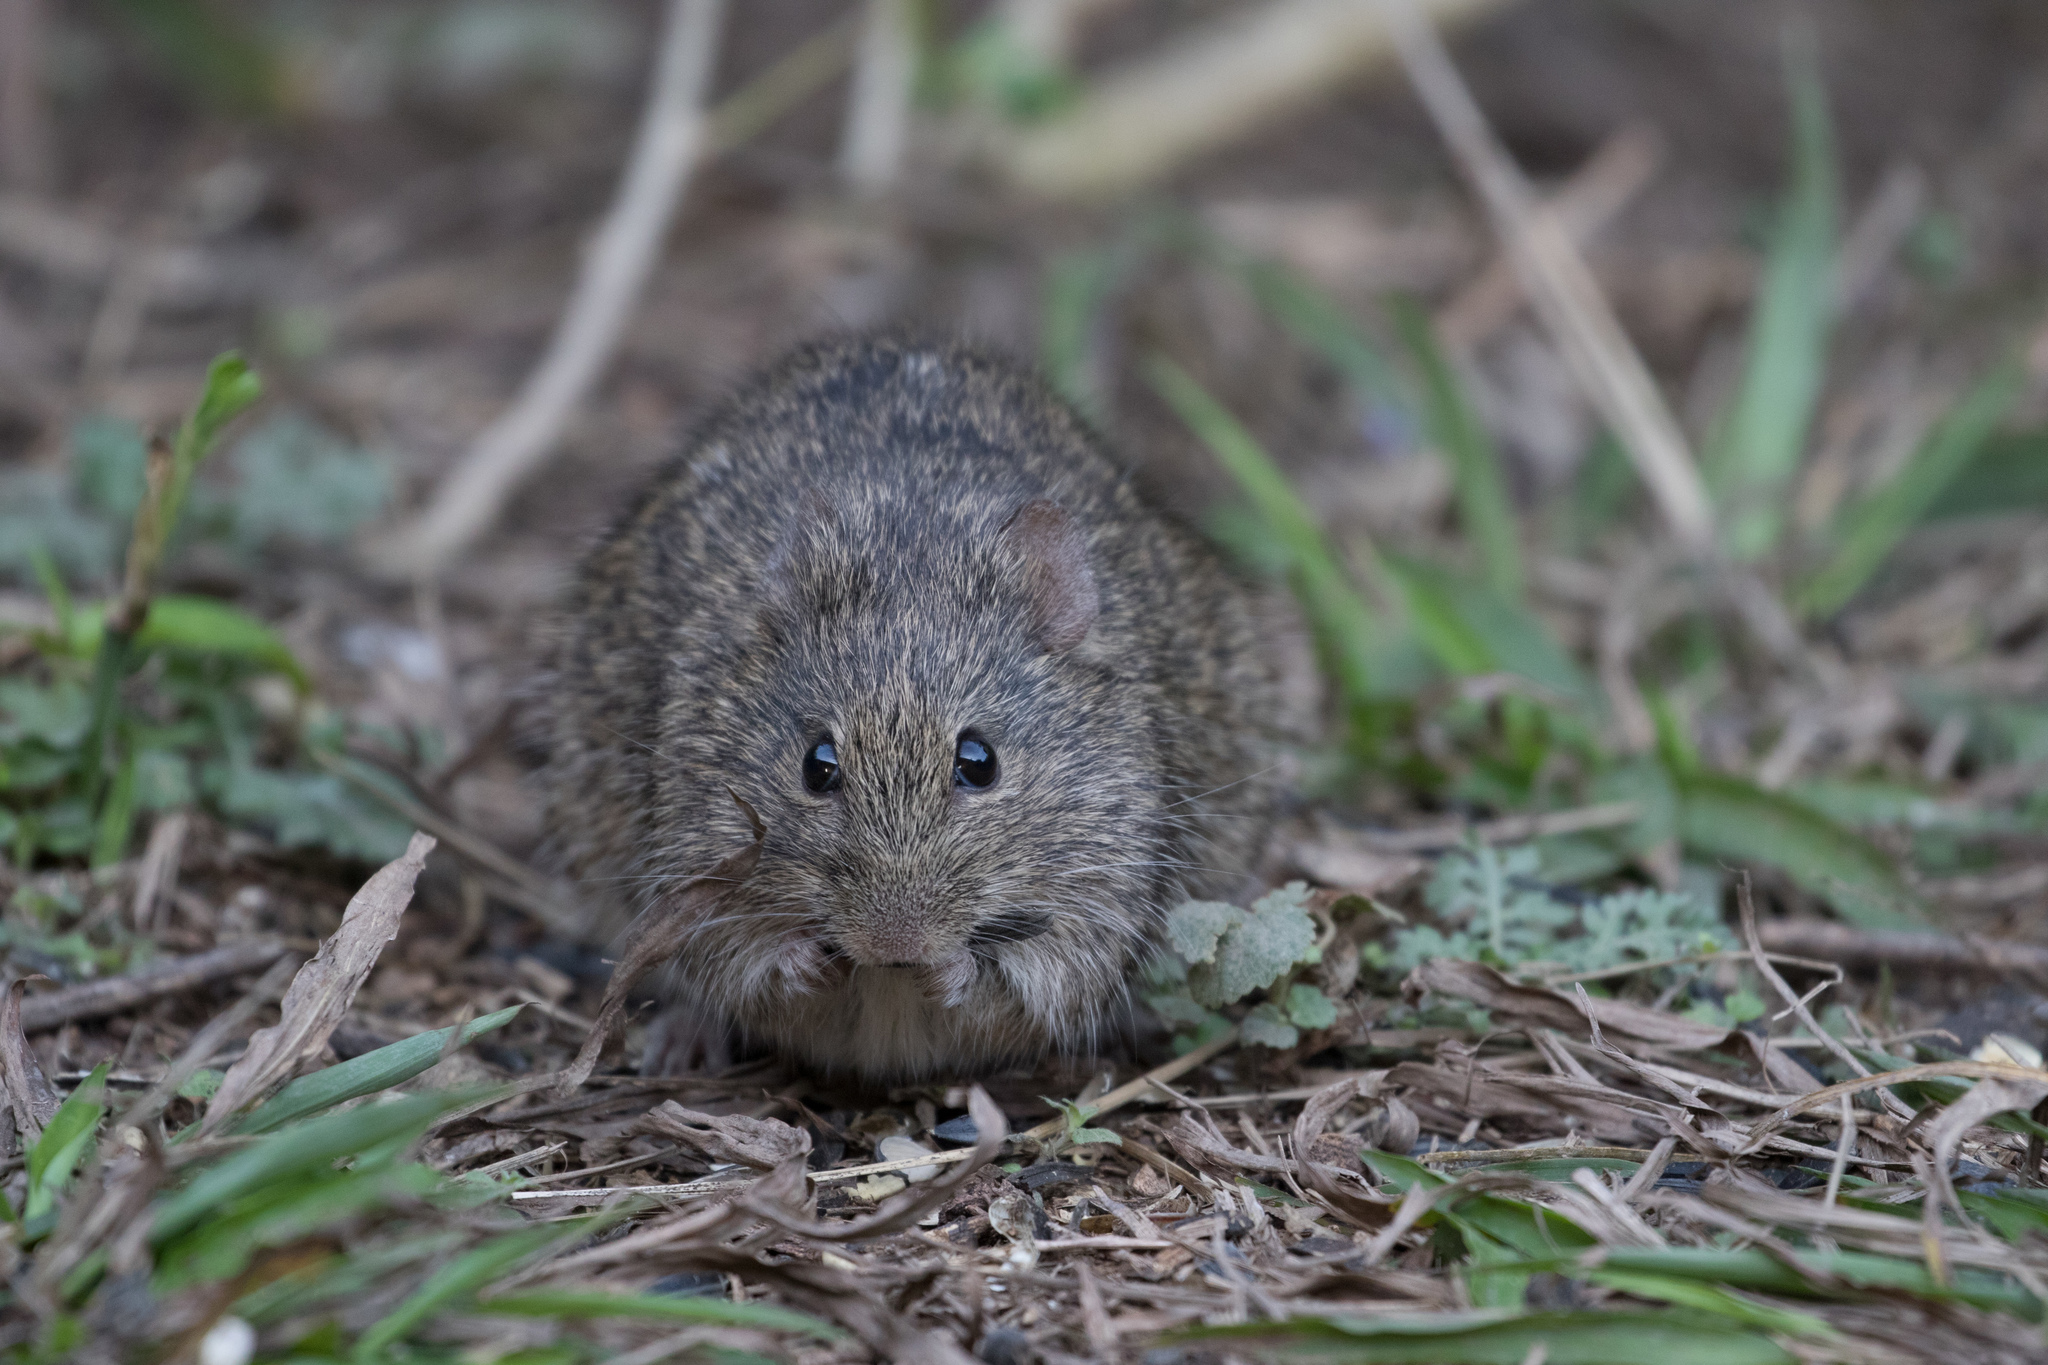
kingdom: Animalia
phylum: Chordata
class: Mammalia
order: Rodentia
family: Cricetidae
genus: Sigmodon
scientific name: Sigmodon hispidus
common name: Hispid cotton rat
